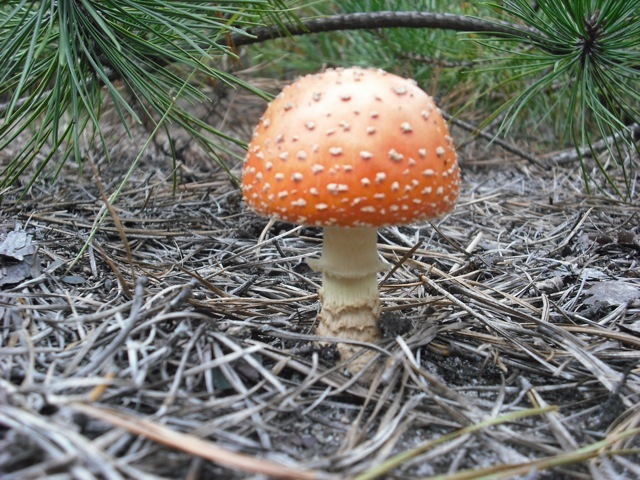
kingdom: Fungi
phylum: Basidiomycota
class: Agaricomycetes
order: Agaricales
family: Amanitaceae
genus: Amanita
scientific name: Amanita persicina
